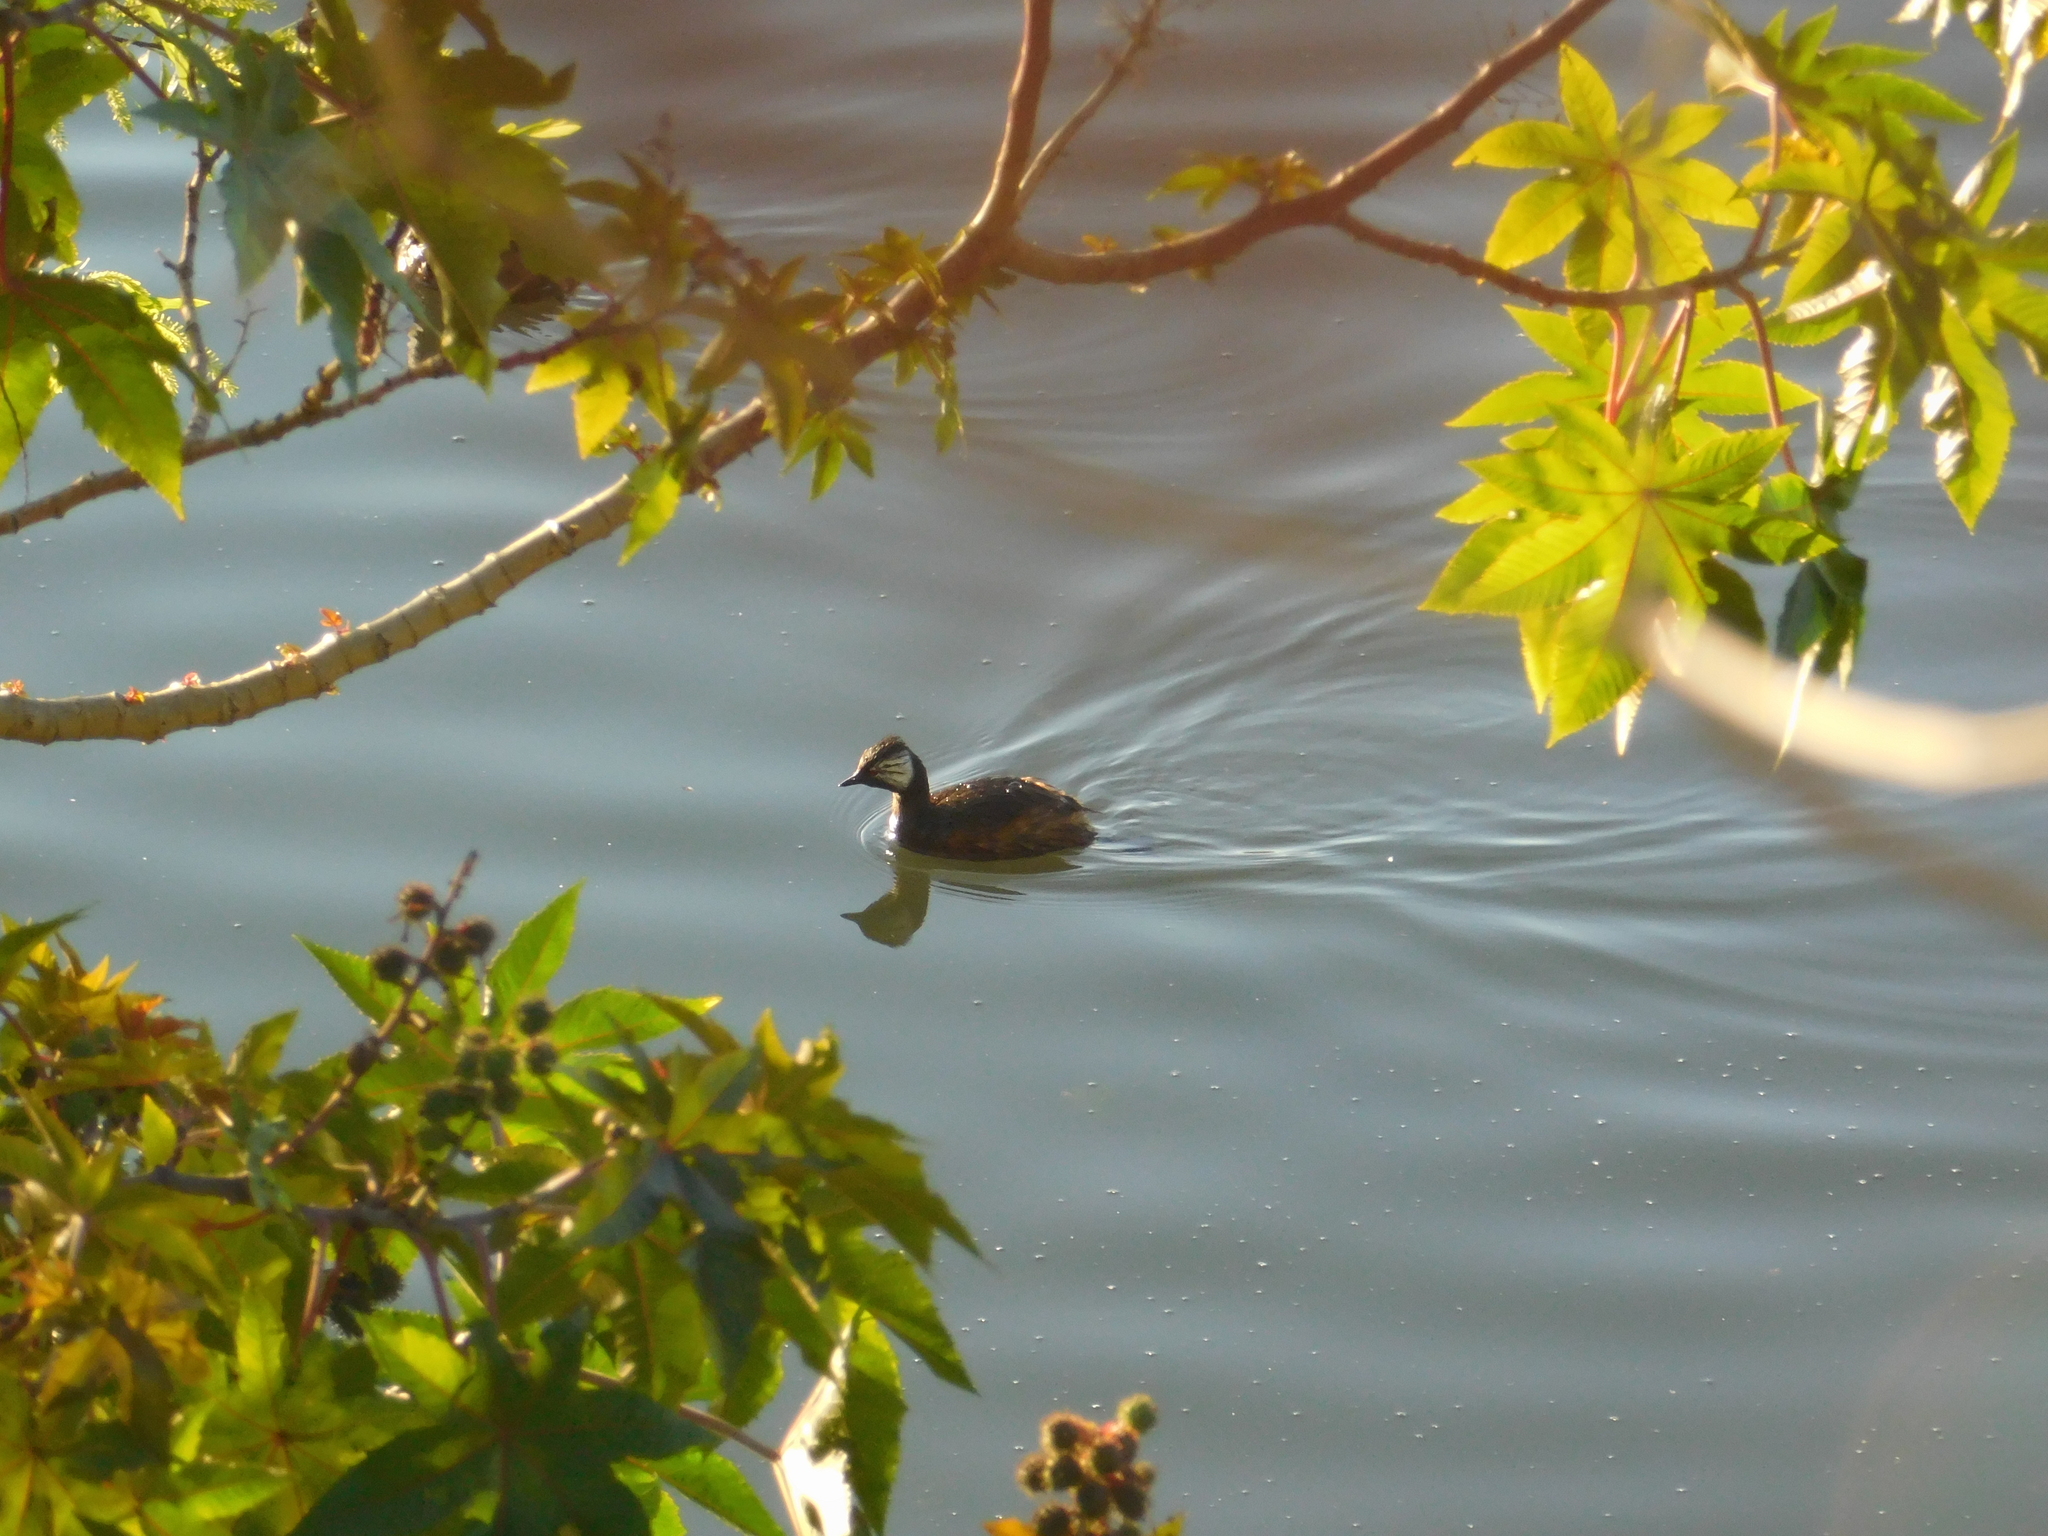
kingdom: Animalia
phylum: Chordata
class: Aves
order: Podicipediformes
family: Podicipedidae
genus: Rollandia
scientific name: Rollandia rolland
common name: White-tufted grebe
